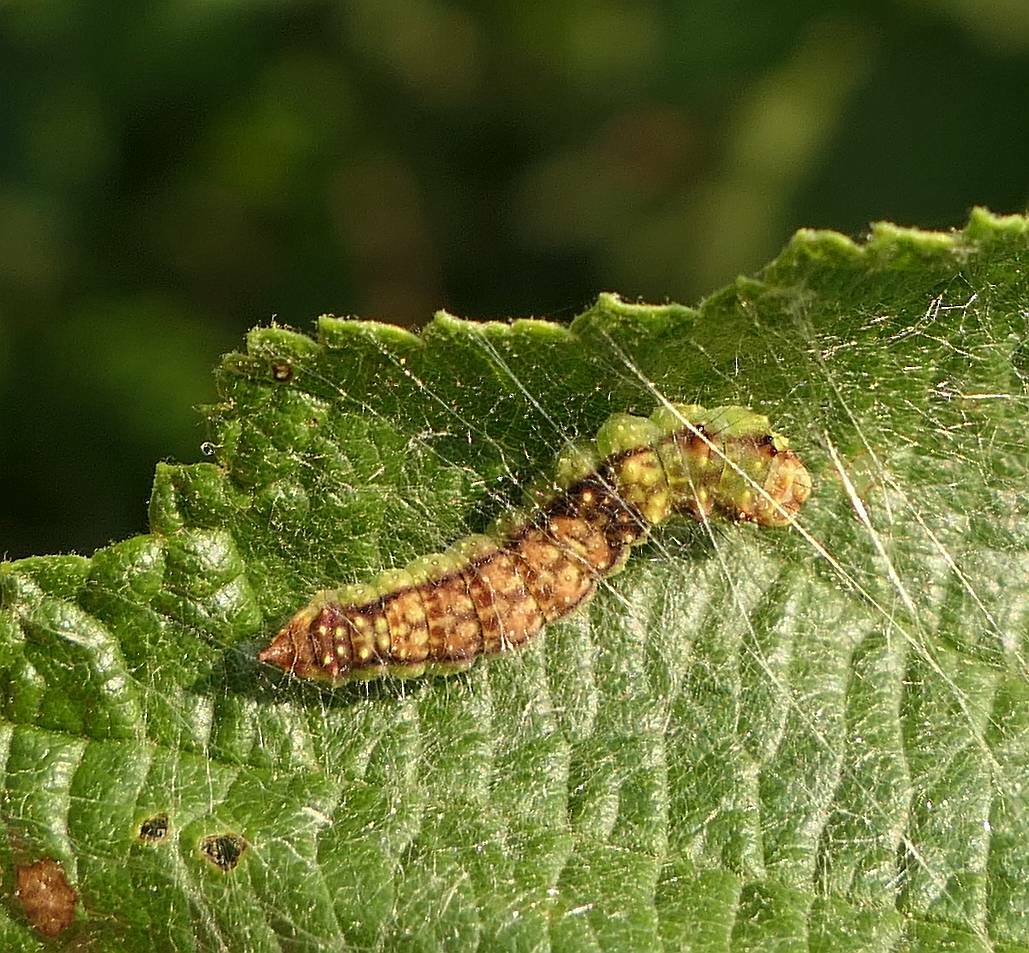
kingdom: Animalia
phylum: Arthropoda
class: Insecta
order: Lepidoptera
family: Drepanidae
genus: Drepana
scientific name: Drepana arcuata
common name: Arched hooktip moth
